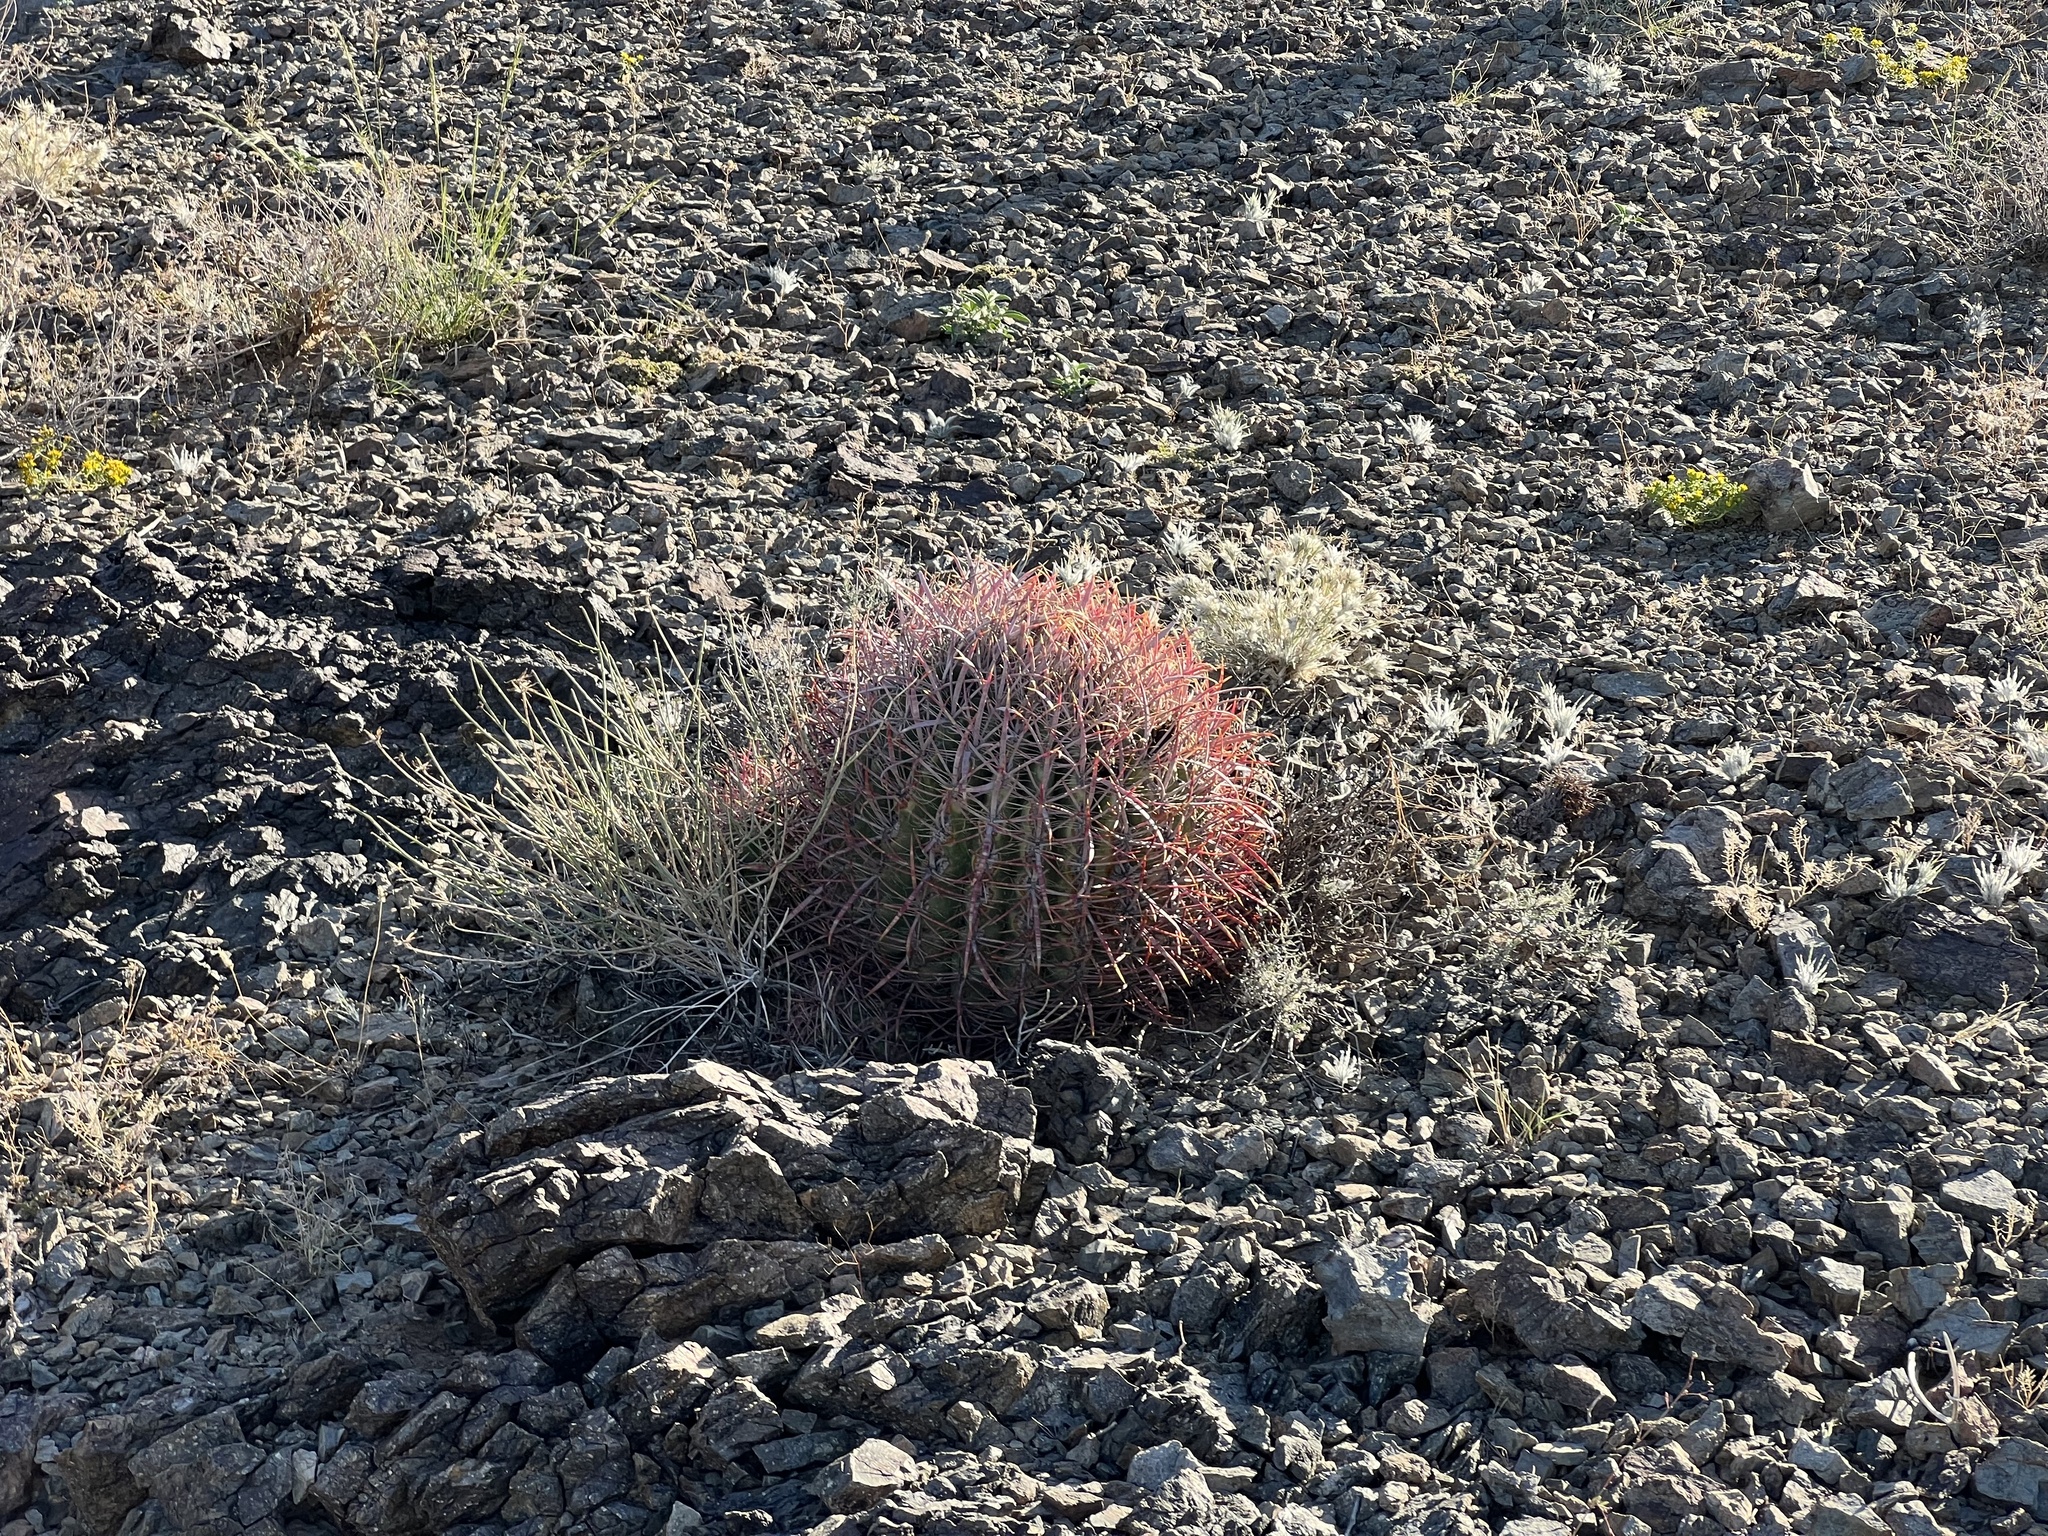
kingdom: Plantae
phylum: Tracheophyta
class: Magnoliopsida
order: Caryophyllales
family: Cactaceae
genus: Ferocactus
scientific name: Ferocactus cylindraceus
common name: California barrel cactus
